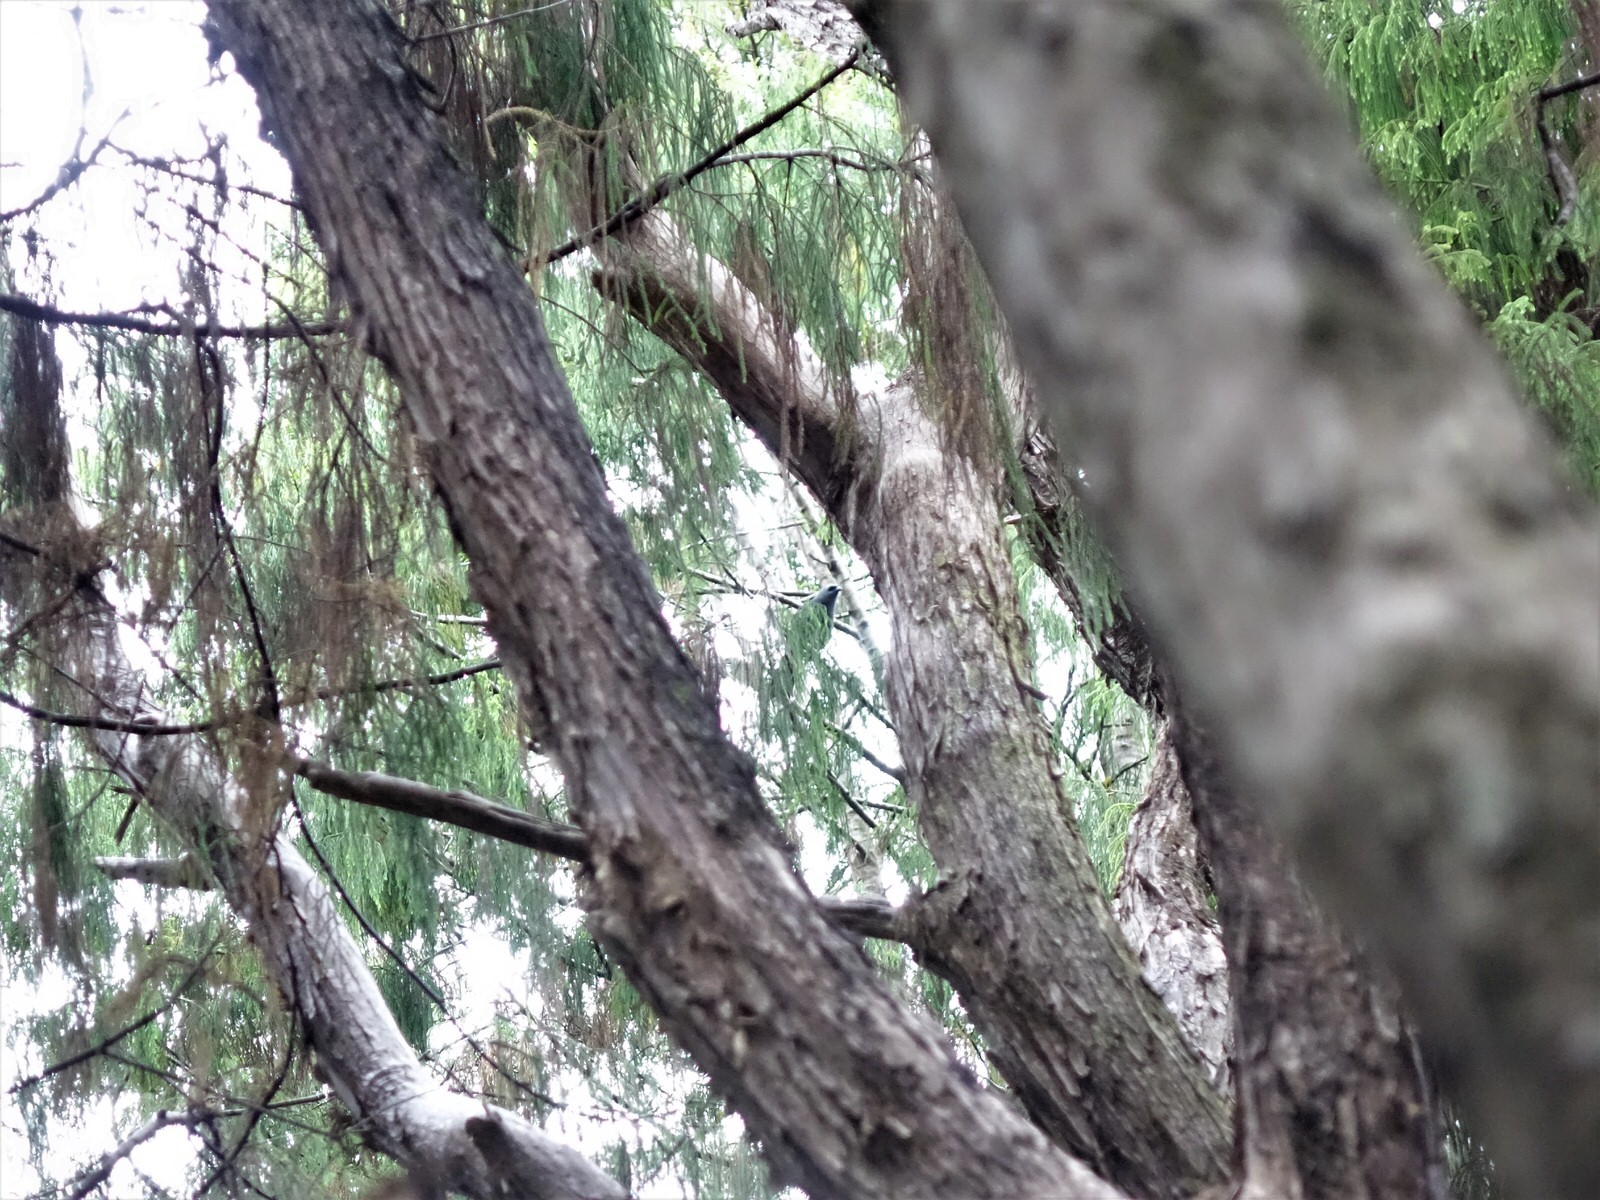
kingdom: Animalia
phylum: Chordata
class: Aves
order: Passeriformes
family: Callaeatidae
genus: Callaeas
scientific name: Callaeas cinereus
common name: South island kokako
